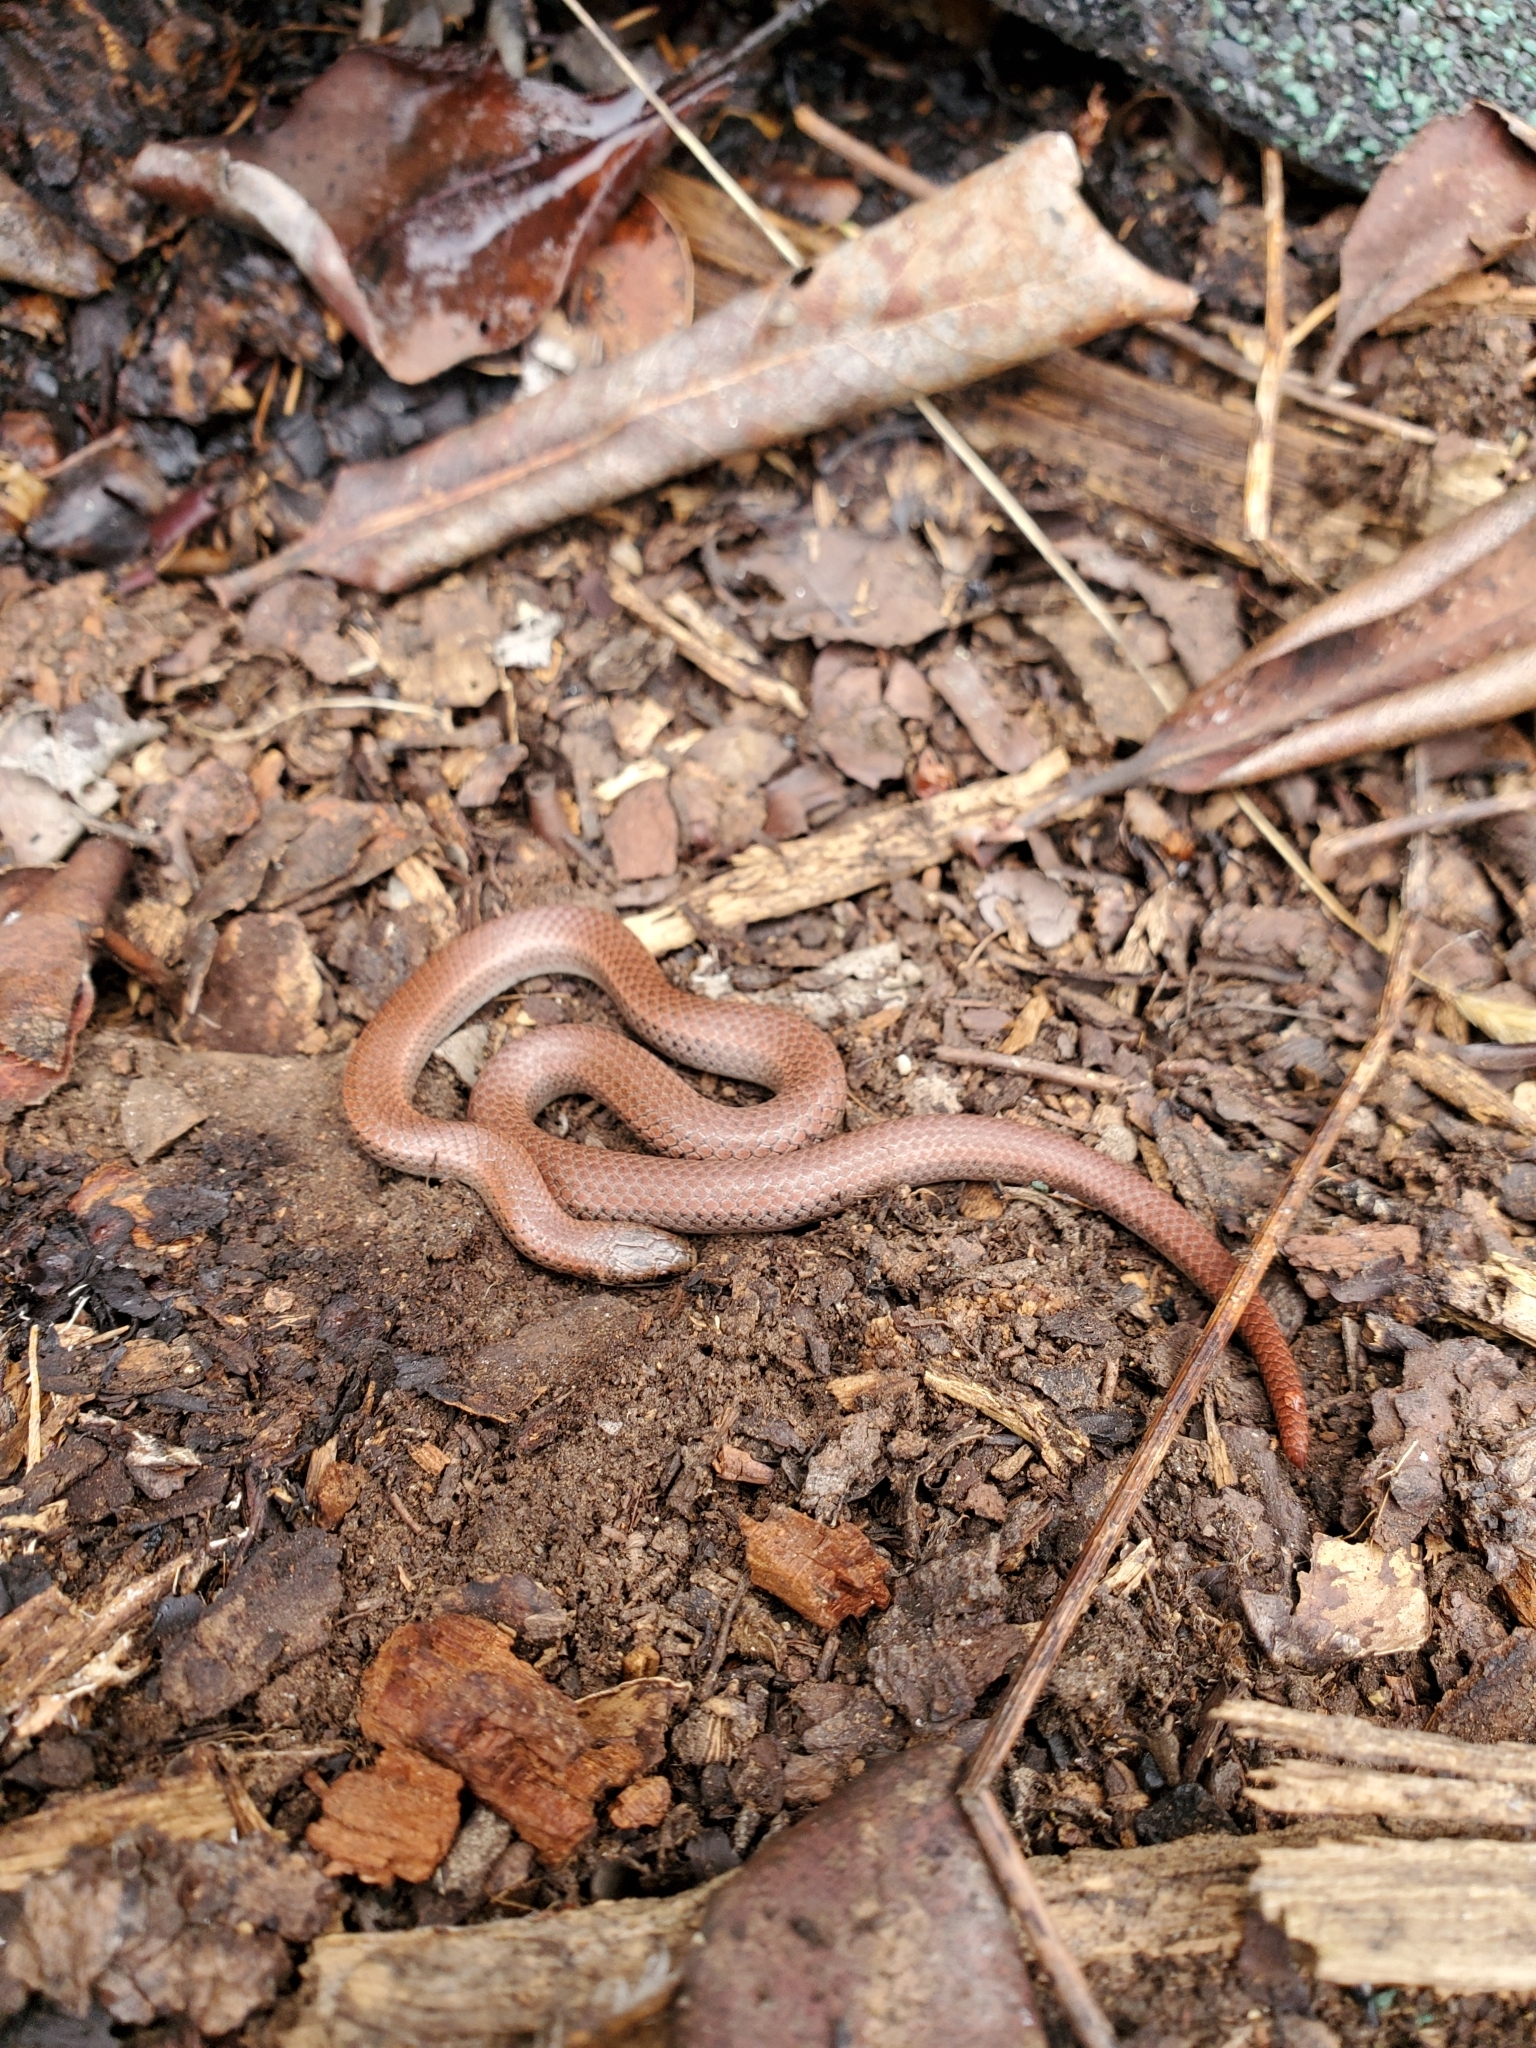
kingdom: Animalia
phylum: Chordata
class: Squamata
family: Colubridae
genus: Contia
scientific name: Contia tenuis
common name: Sharptail snake
